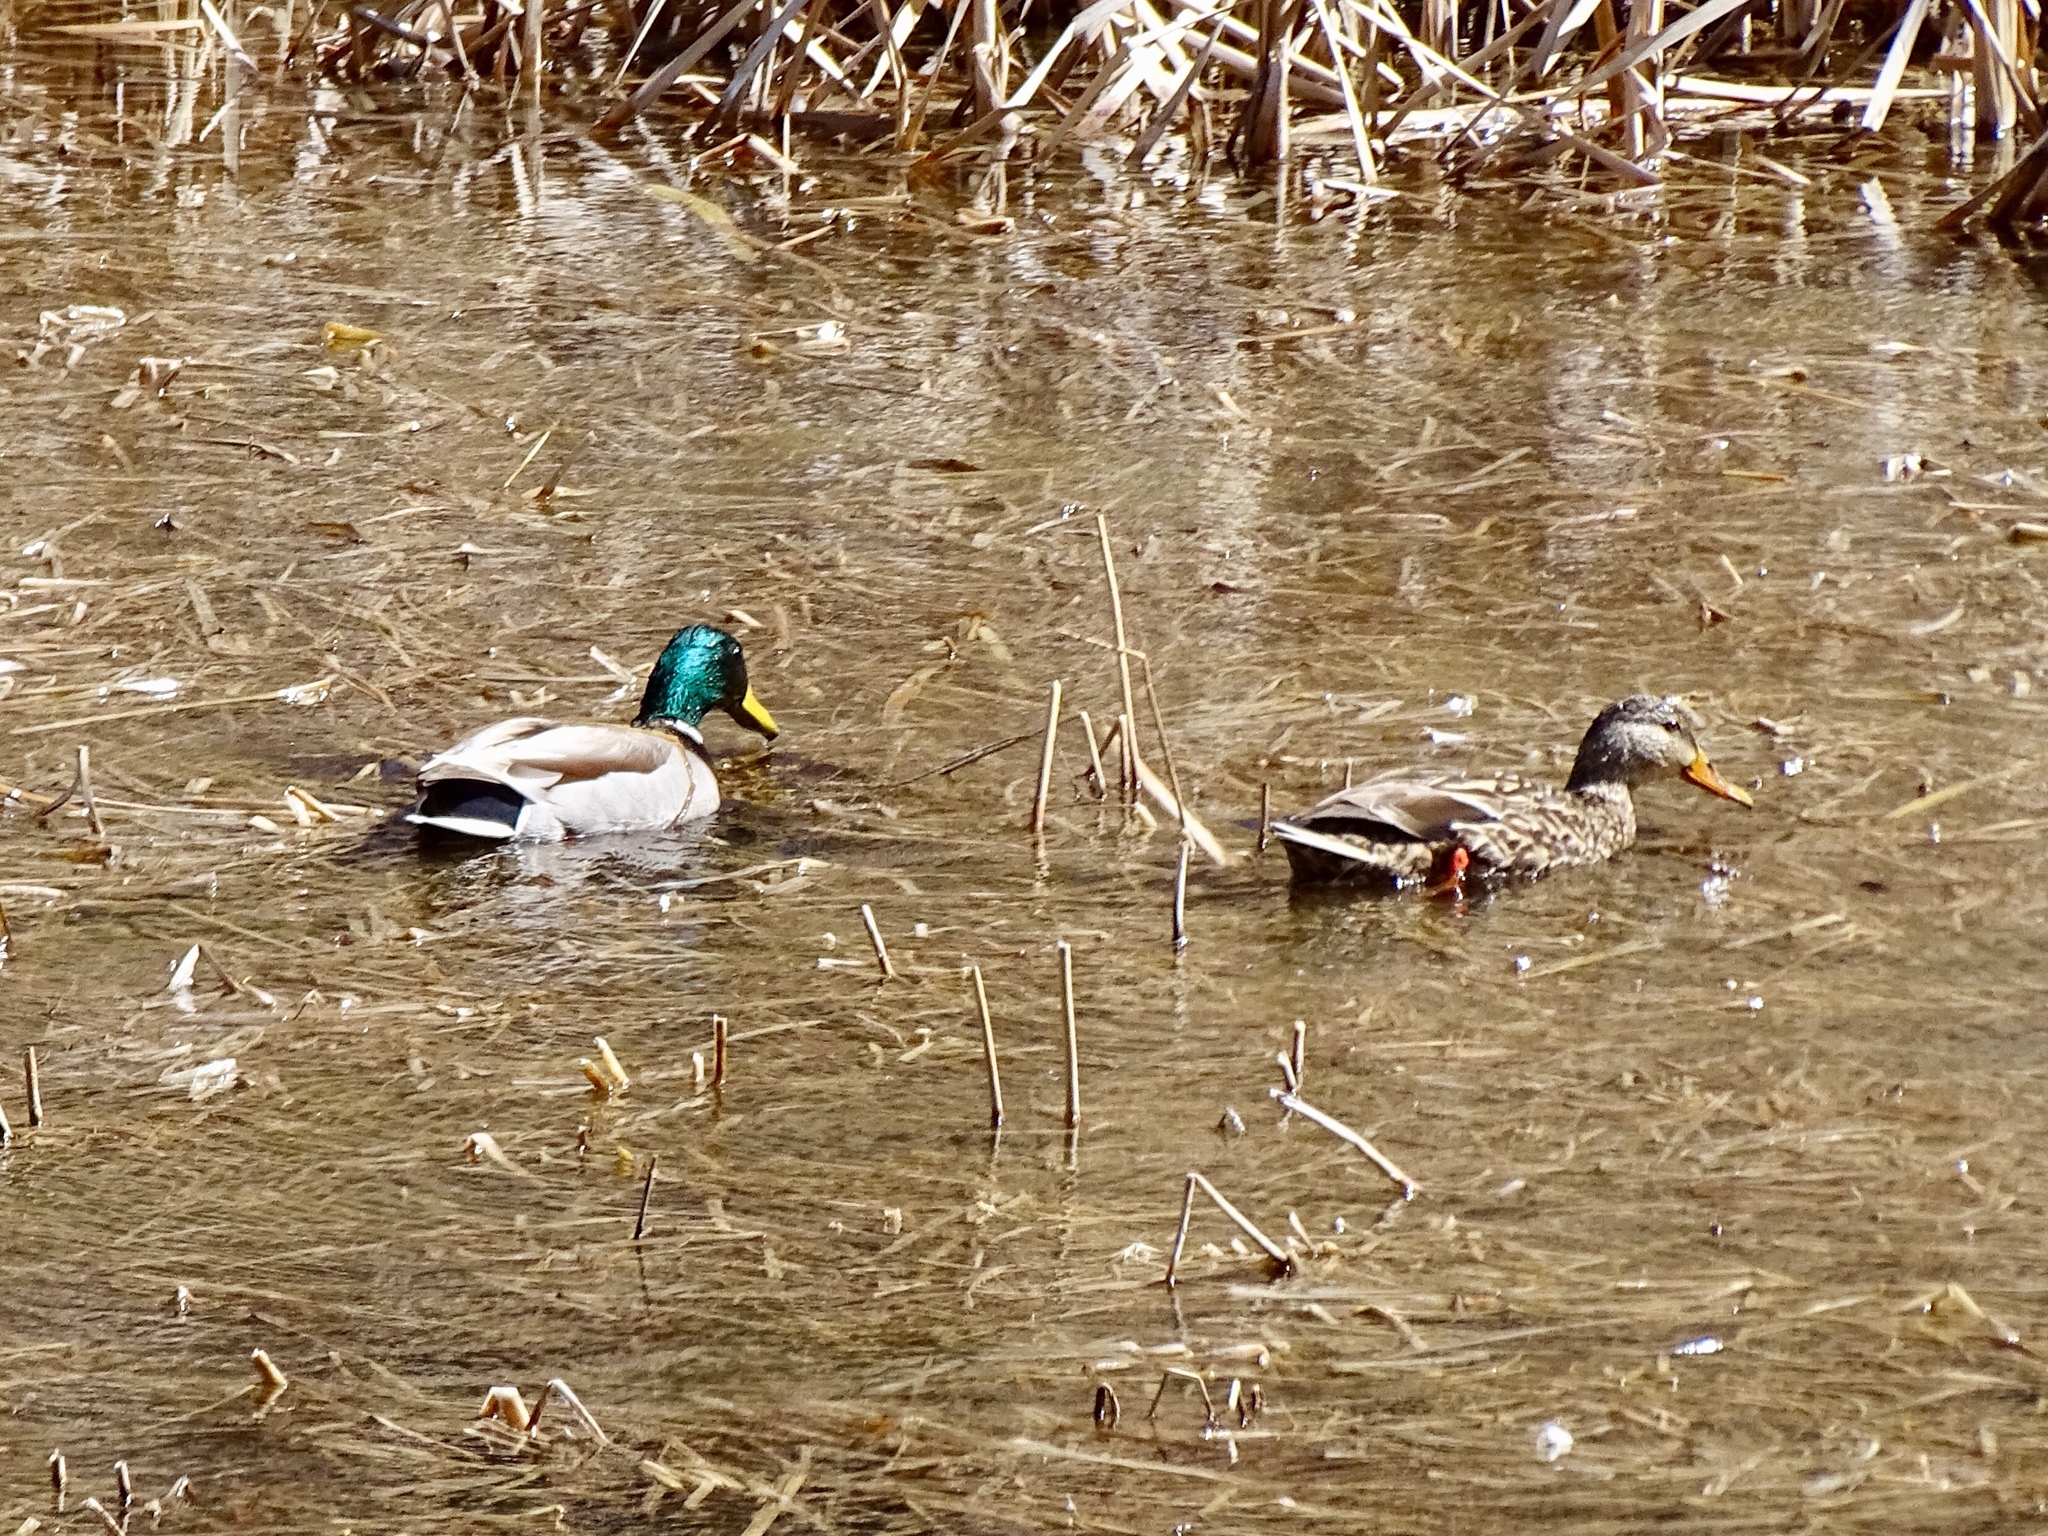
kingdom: Animalia
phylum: Chordata
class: Aves
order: Anseriformes
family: Anatidae
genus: Anas
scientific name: Anas platyrhynchos
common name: Mallard
